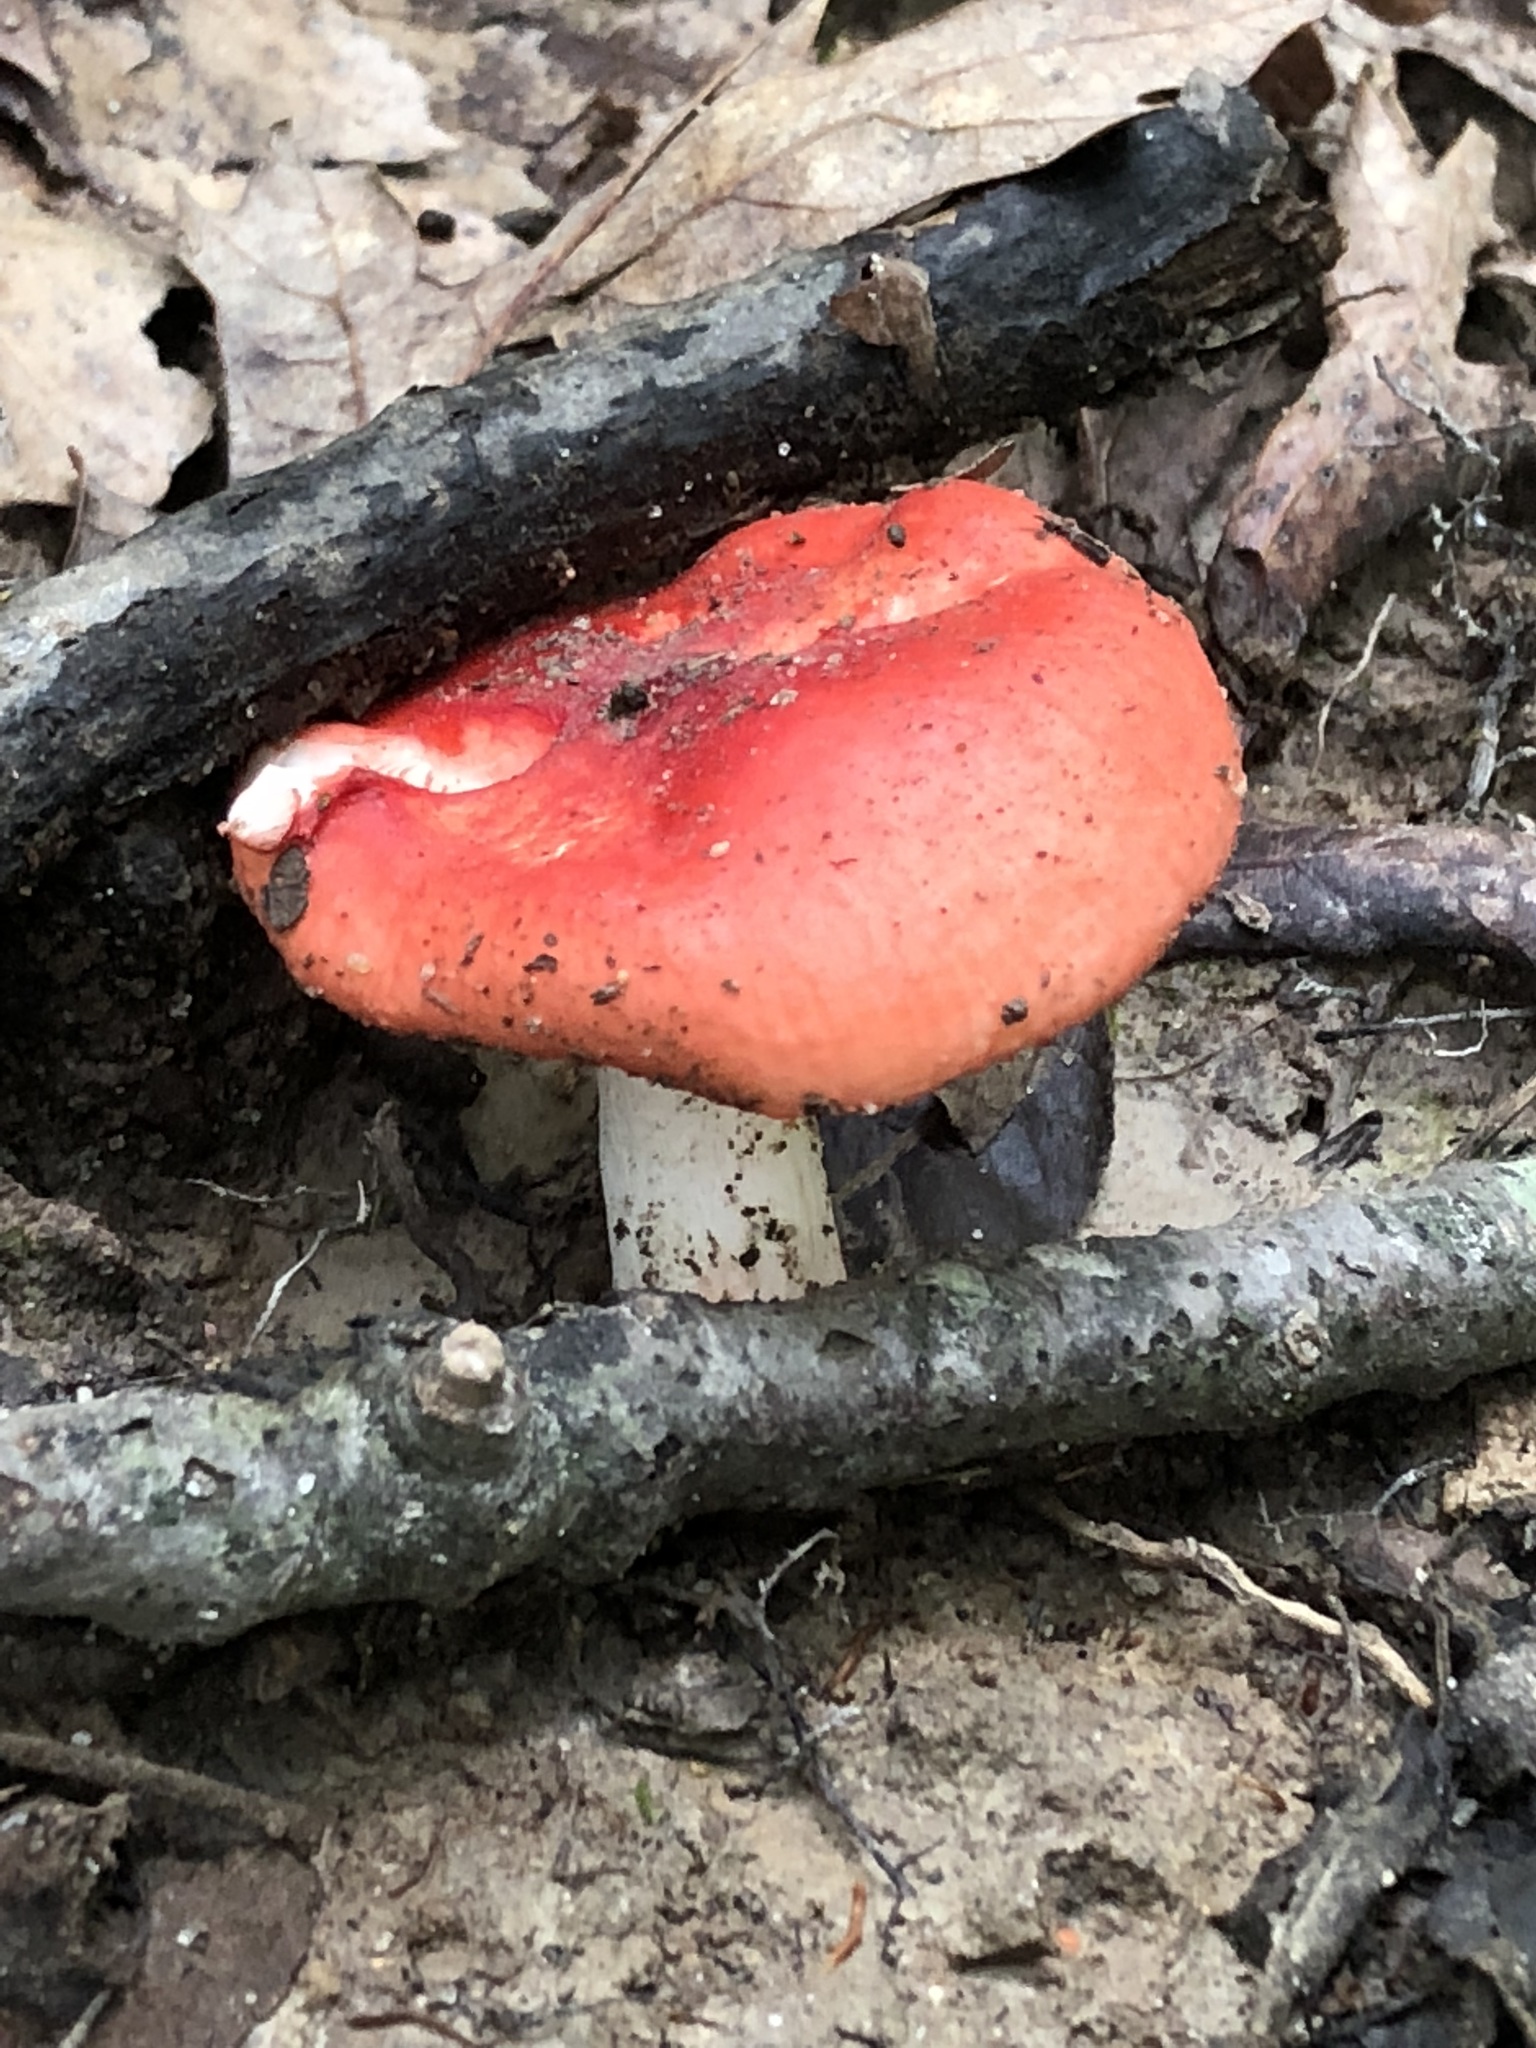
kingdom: Fungi
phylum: Basidiomycota
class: Agaricomycetes
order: Russulales
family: Russulaceae
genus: Russula
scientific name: Russula
